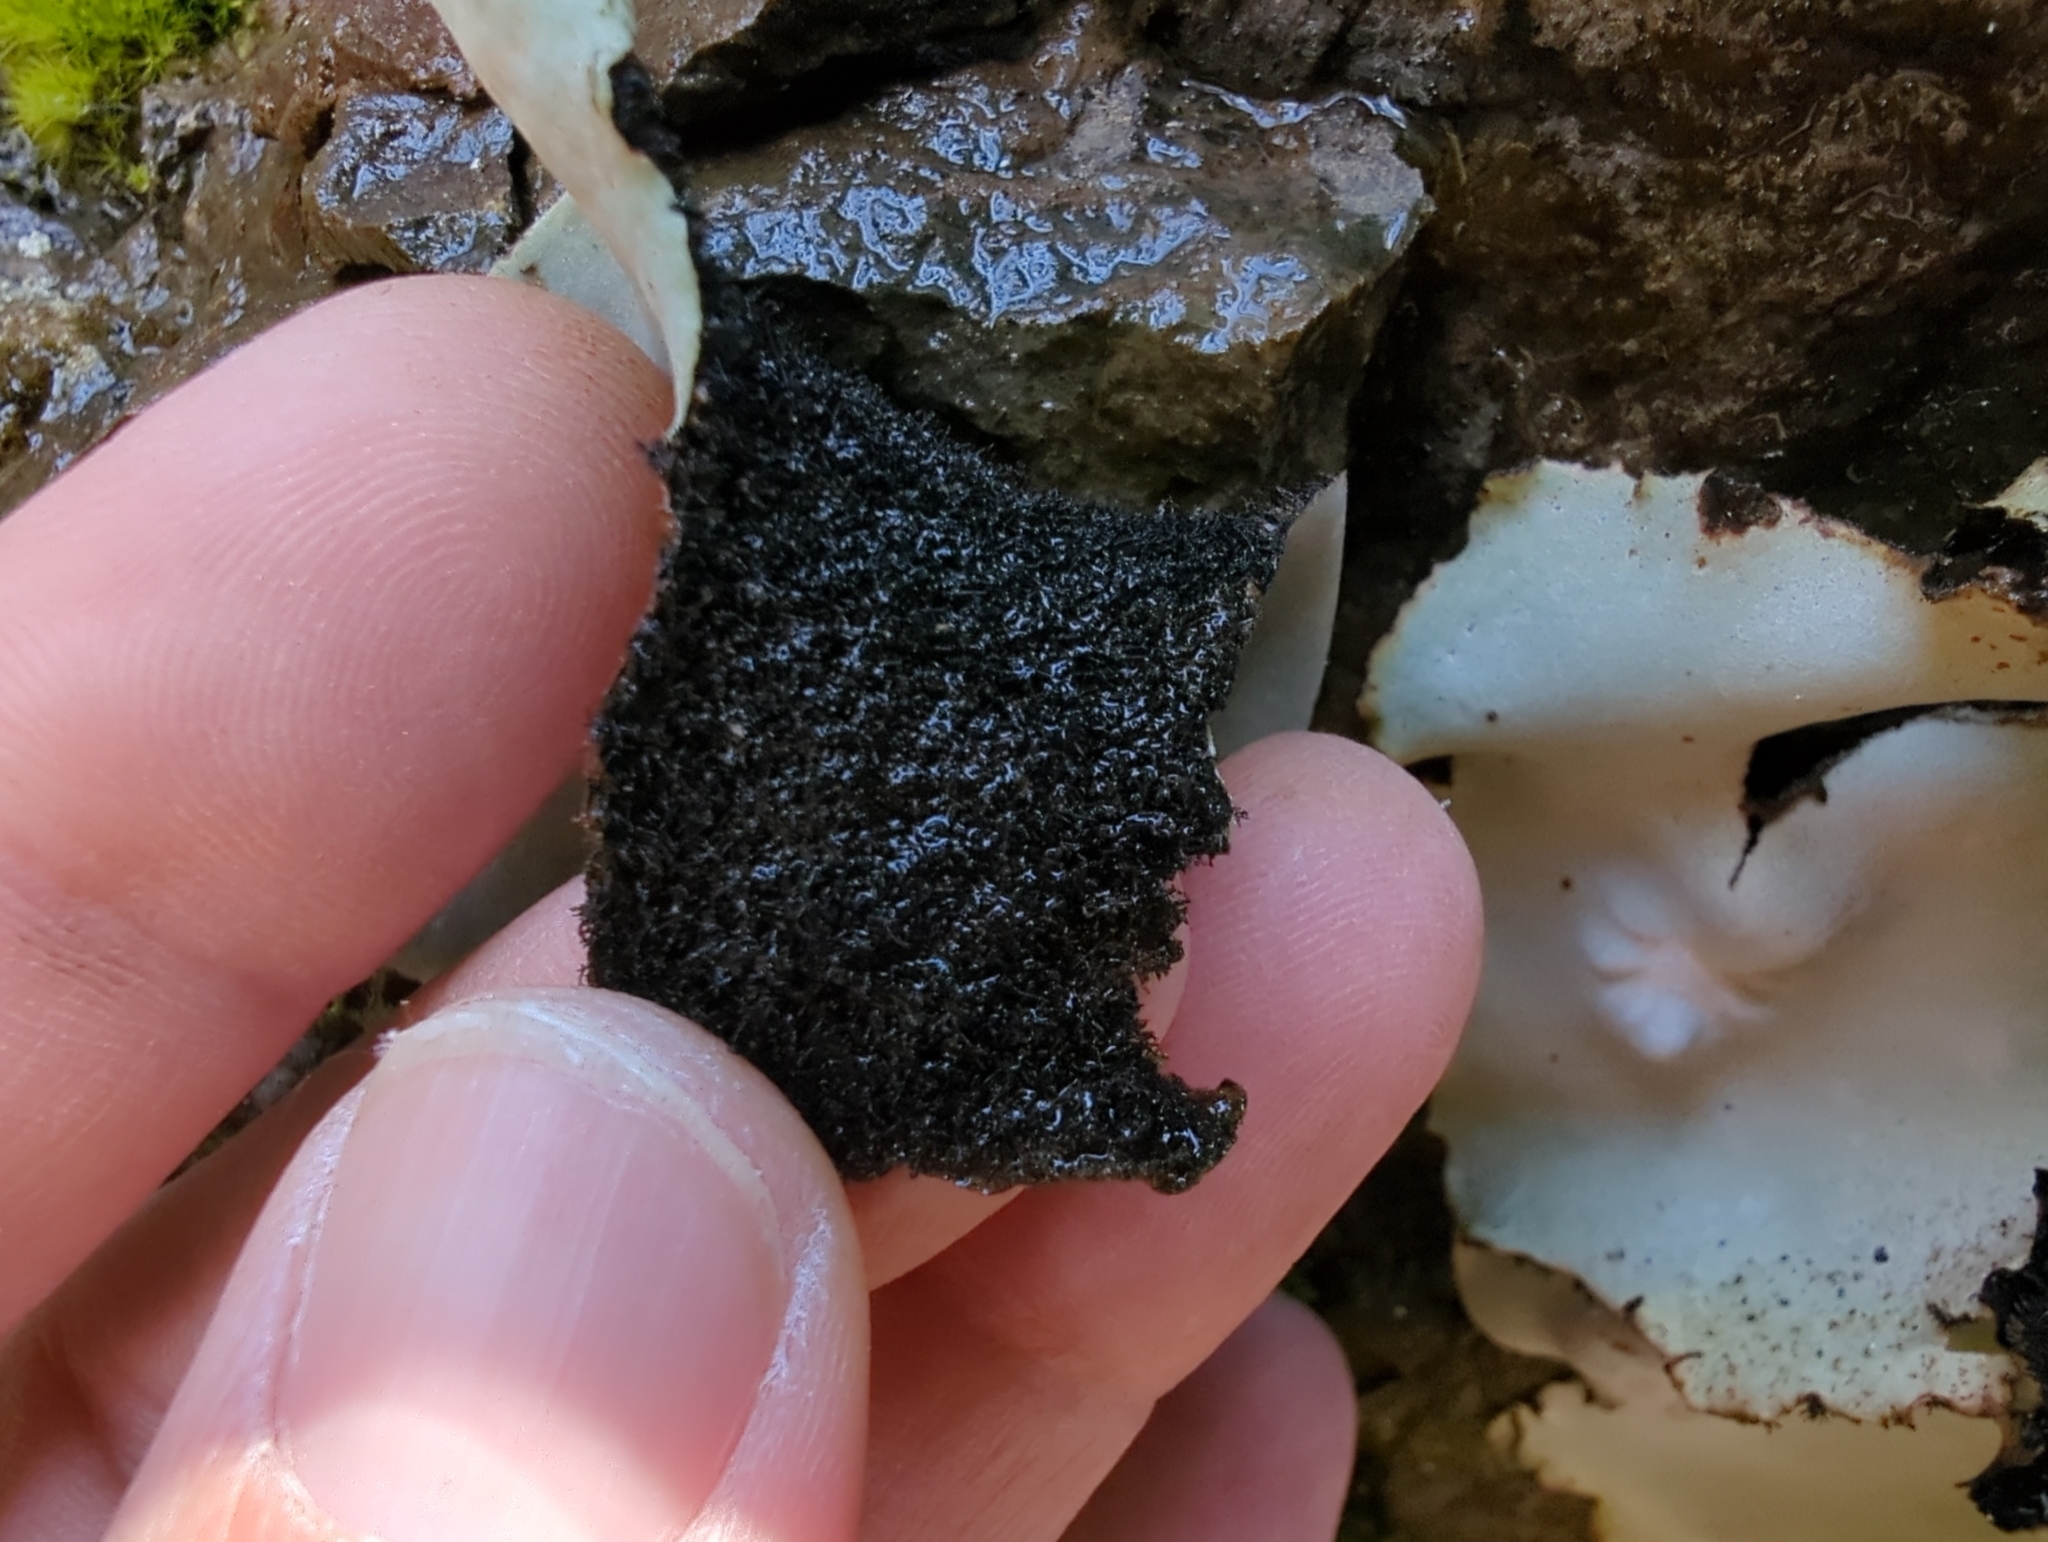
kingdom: Fungi
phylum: Ascomycota
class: Lecanoromycetes
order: Umbilicariales
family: Umbilicariaceae
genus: Umbilicaria
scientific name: Umbilicaria americana
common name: Frosted rock tripe
